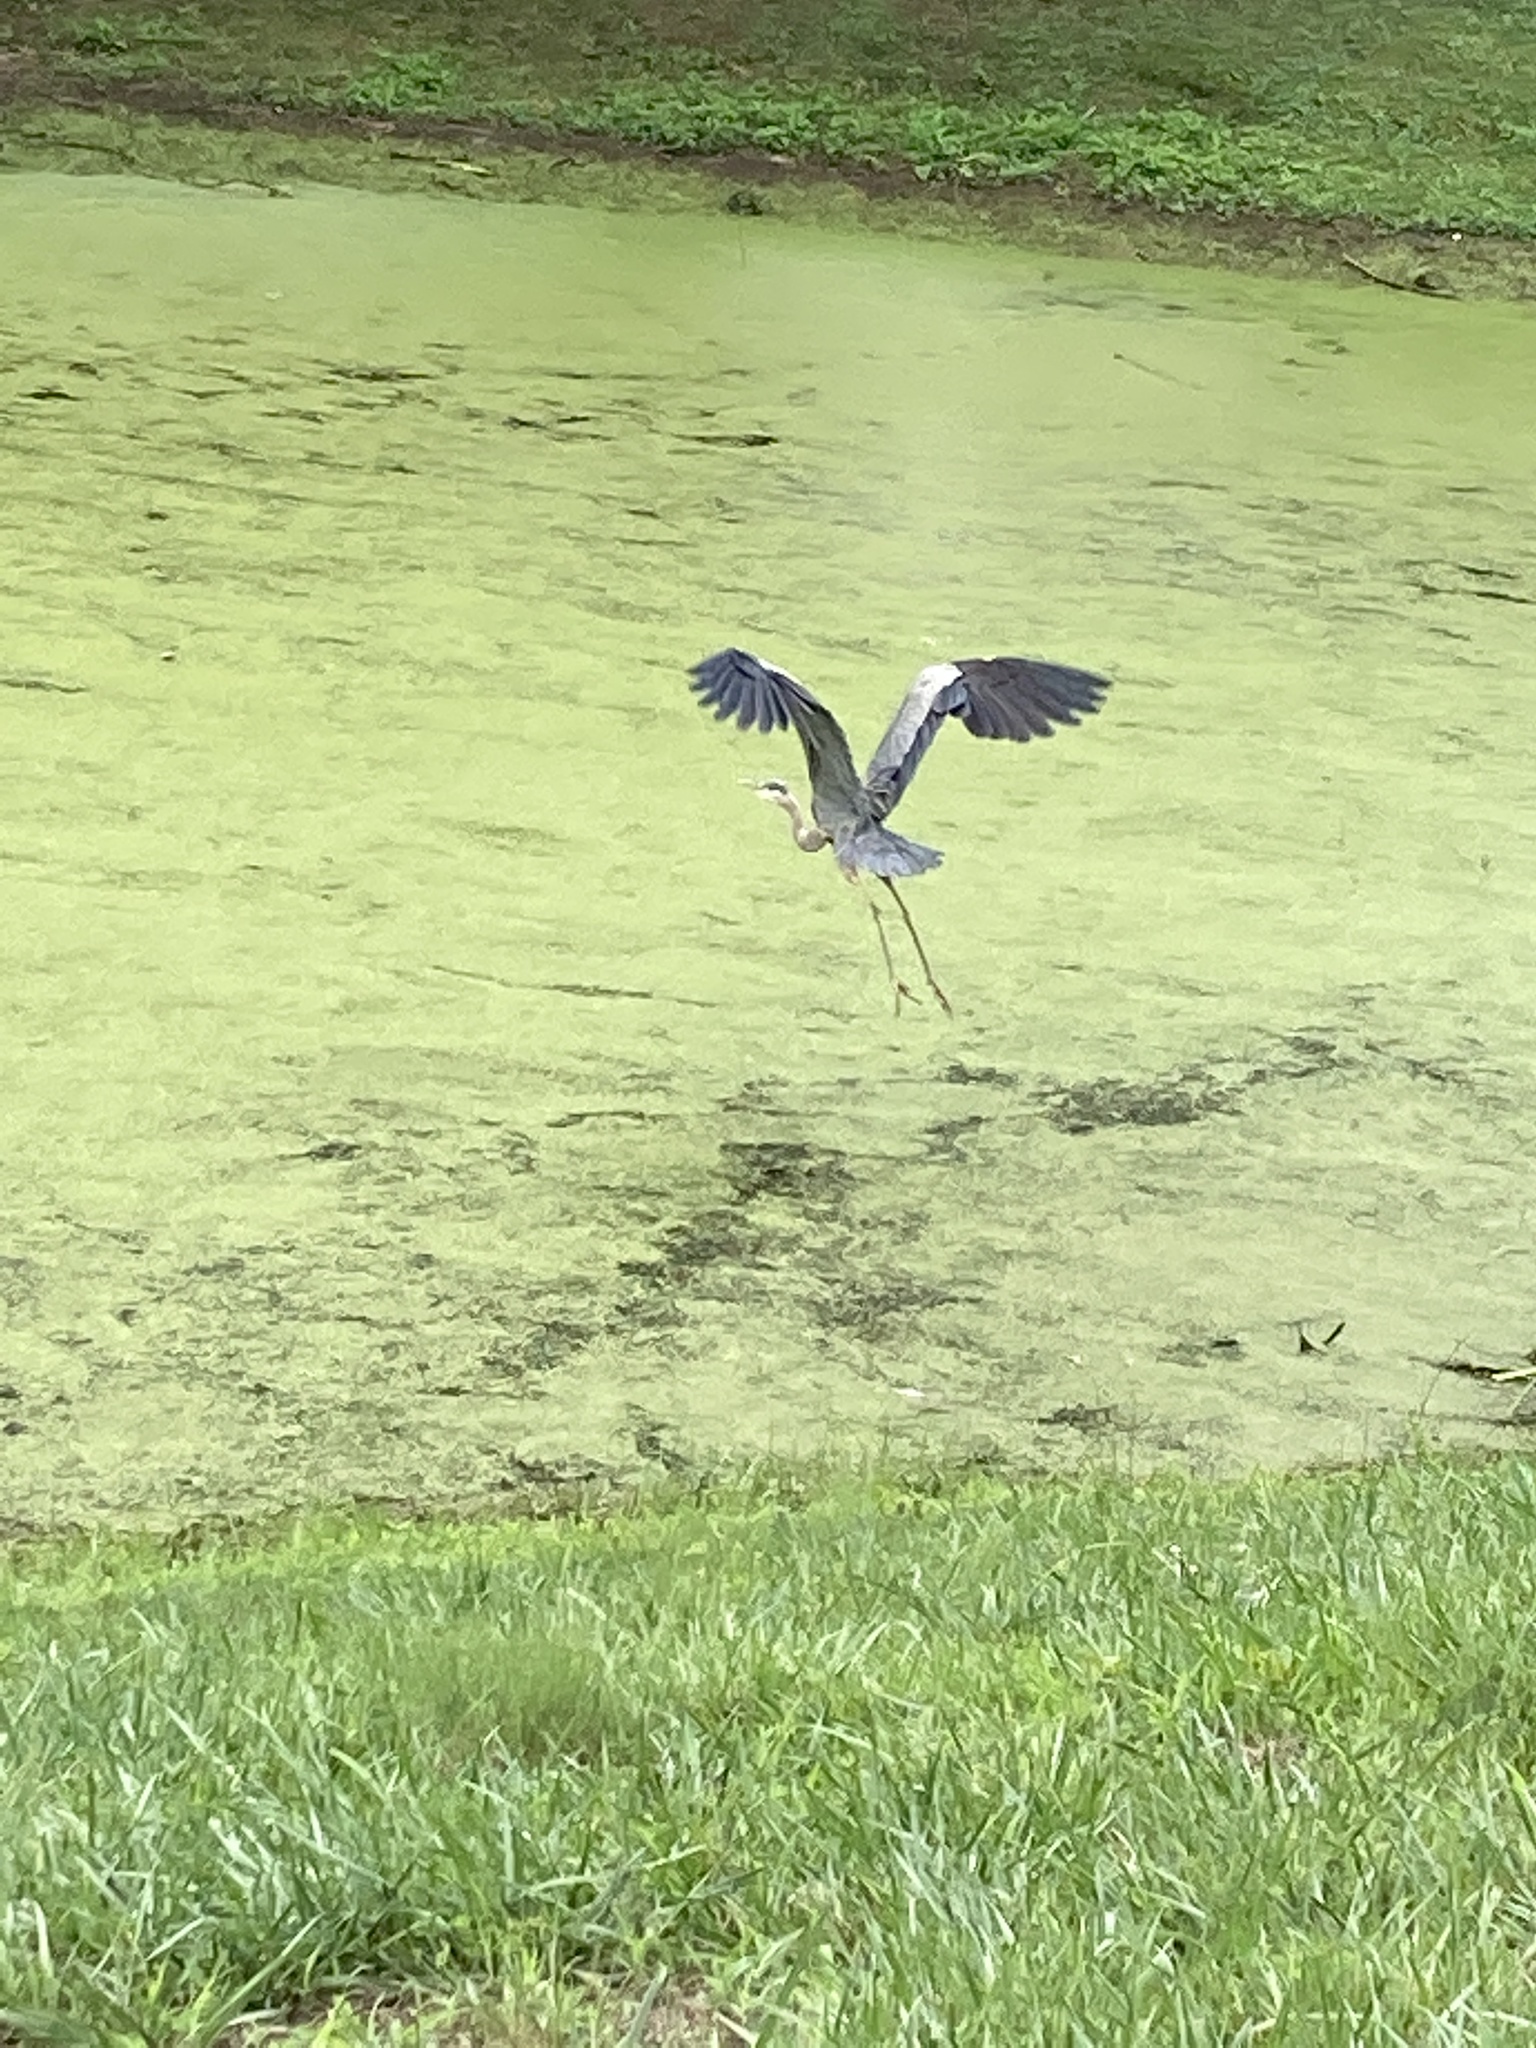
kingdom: Animalia
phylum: Chordata
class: Aves
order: Pelecaniformes
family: Ardeidae
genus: Ardea
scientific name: Ardea herodias
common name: Great blue heron
